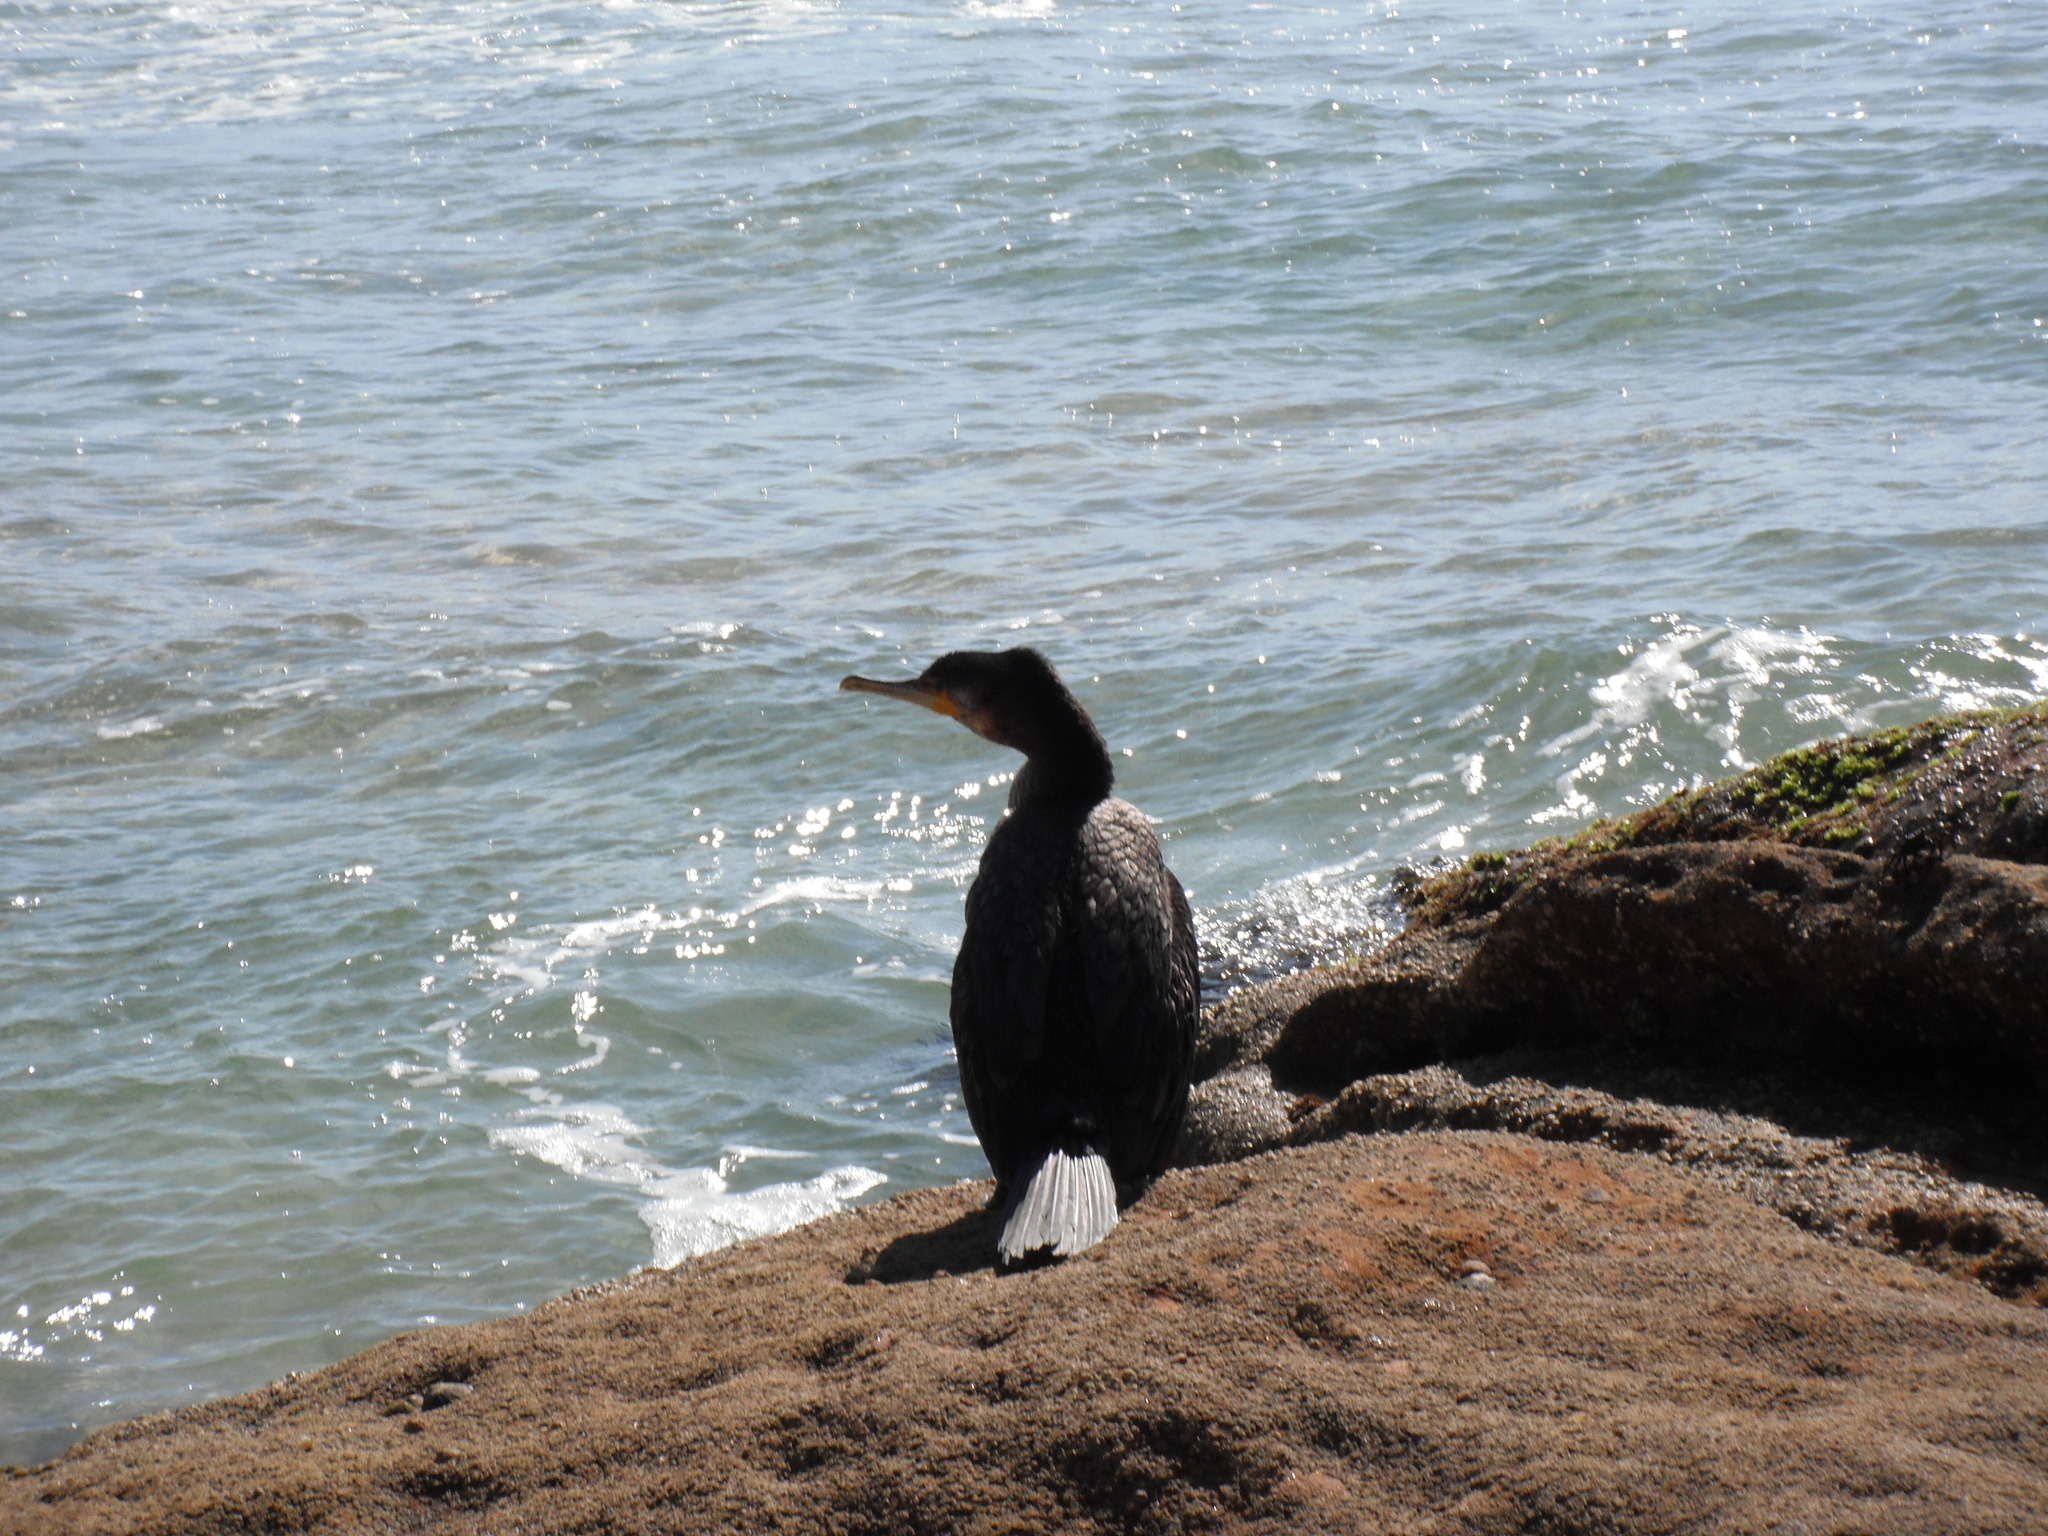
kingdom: Animalia
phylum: Chordata
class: Aves
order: Suliformes
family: Phalacrocoracidae
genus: Phalacrocorax
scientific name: Phalacrocorax carbo
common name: Great cormorant
